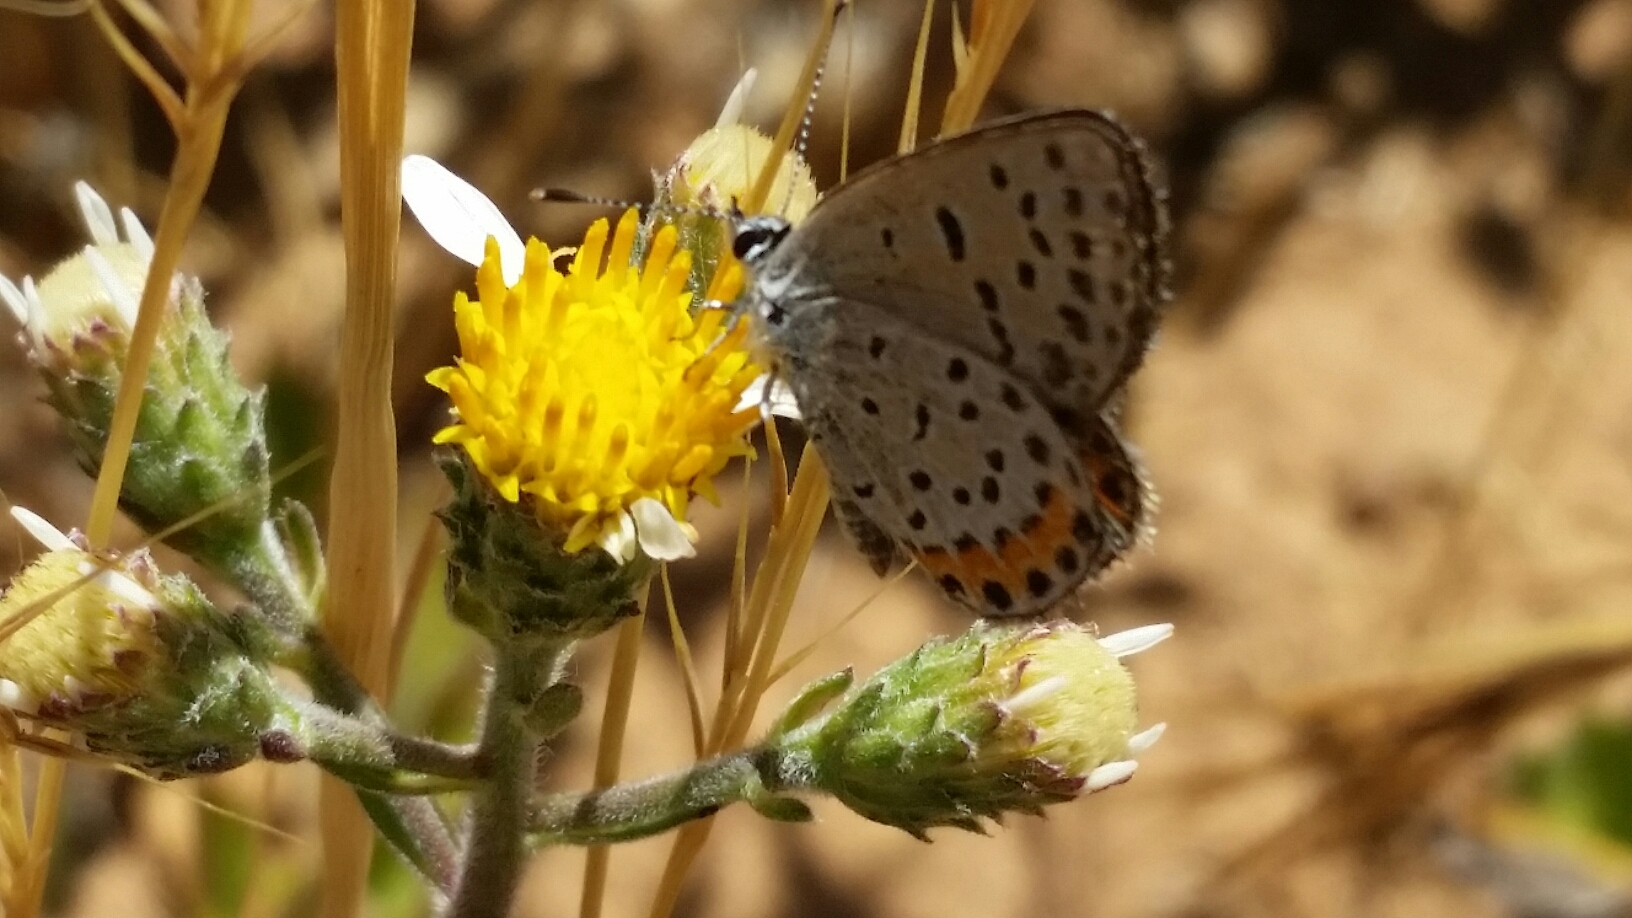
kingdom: Animalia
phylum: Arthropoda
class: Insecta
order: Lepidoptera
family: Lycaenidae
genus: Icaricia
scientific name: Icaricia acmon
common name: Acmon blue
